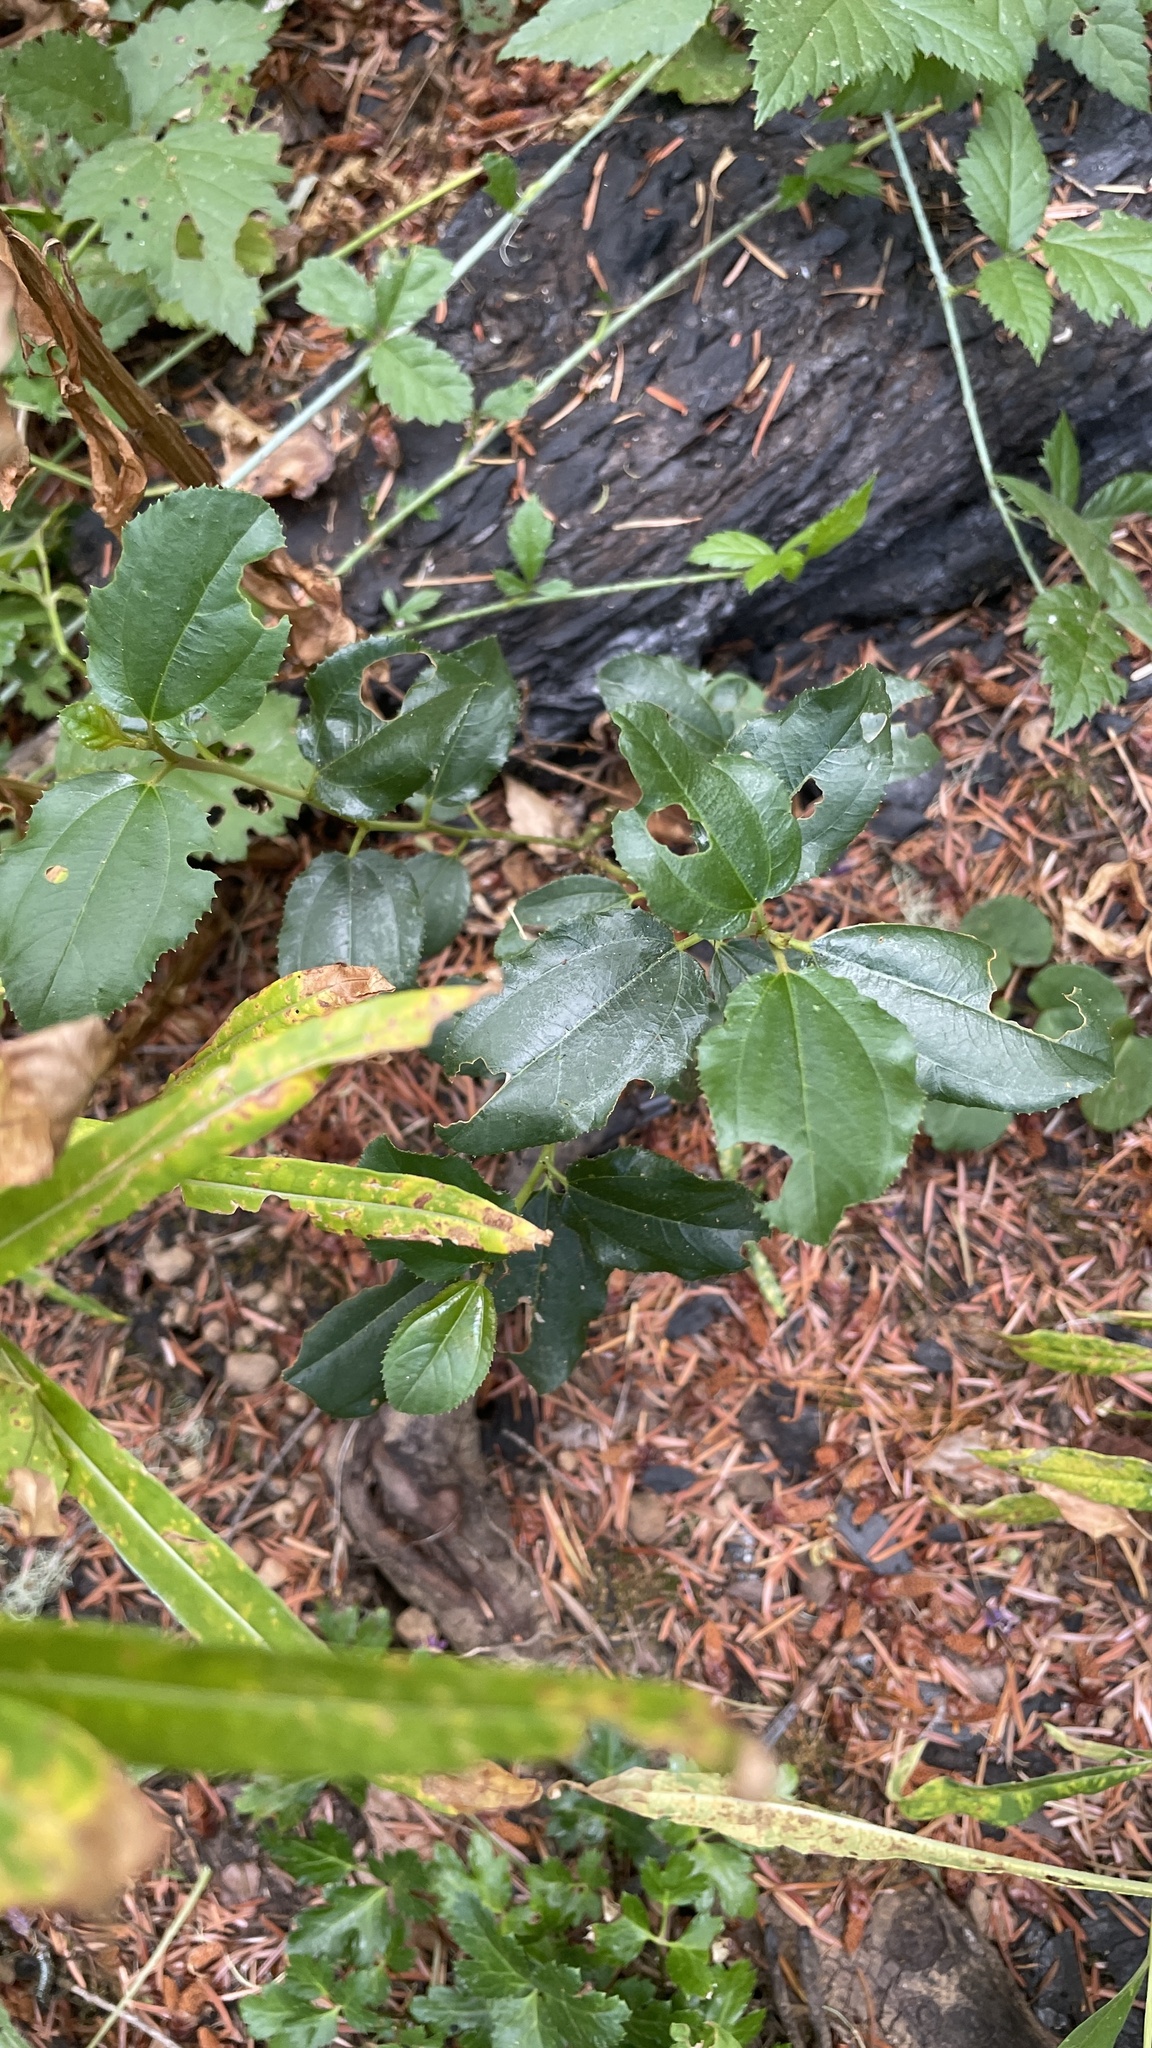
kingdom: Plantae
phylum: Tracheophyta
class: Magnoliopsida
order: Rosales
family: Rhamnaceae
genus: Ceanothus
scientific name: Ceanothus velutinus
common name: Snowbrush
